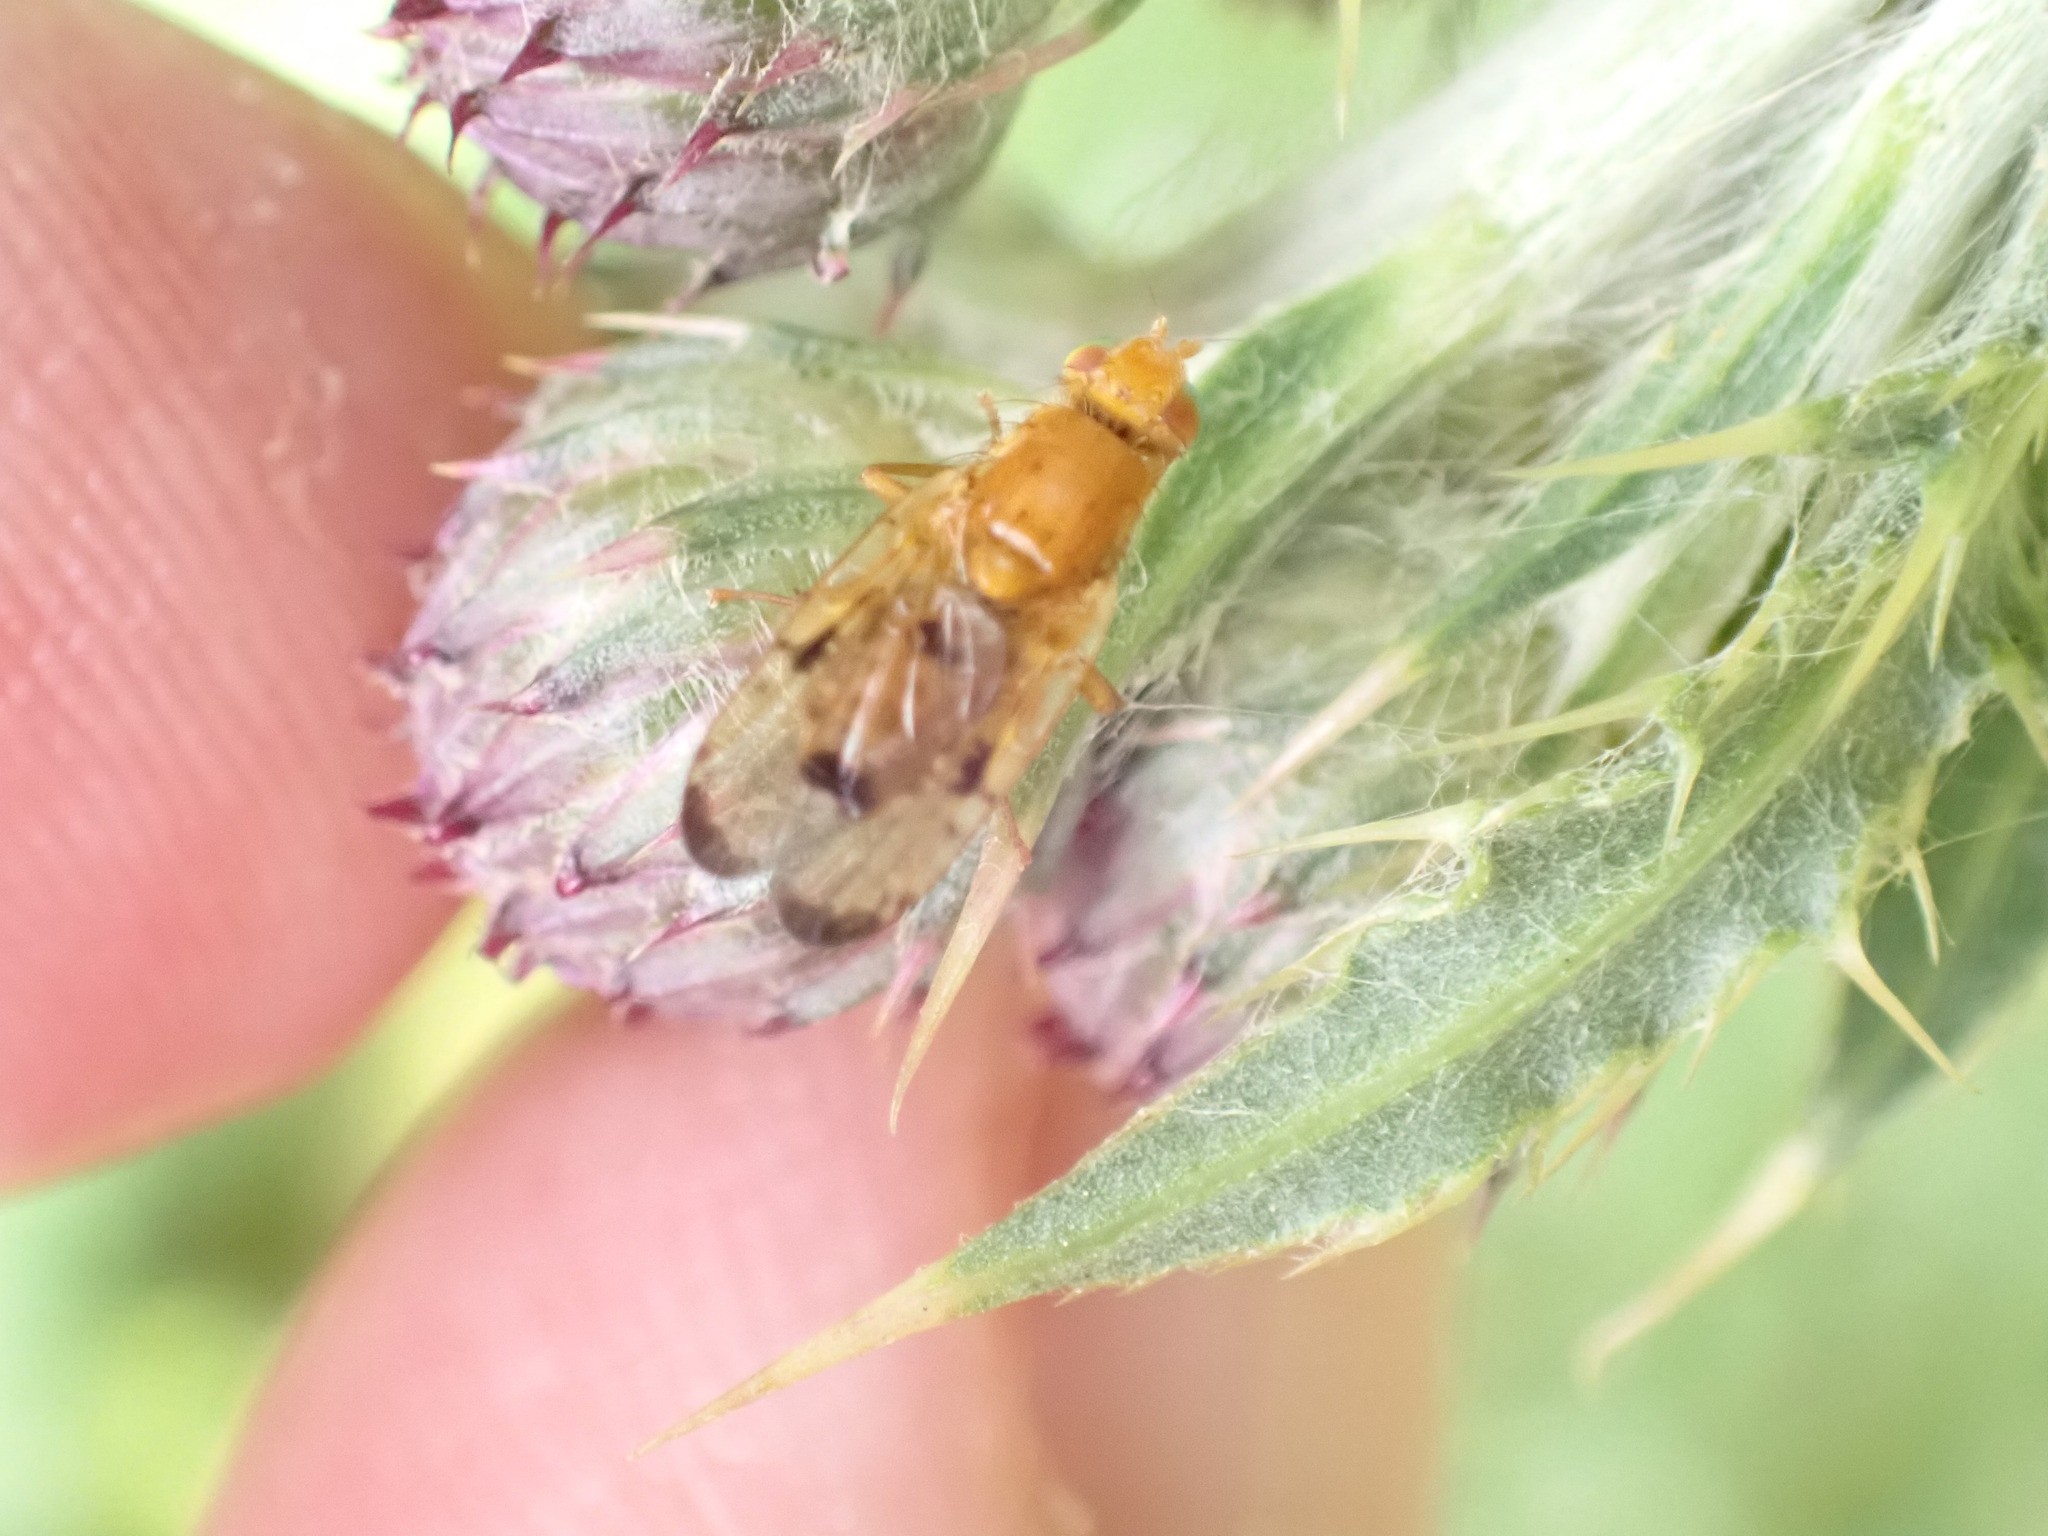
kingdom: Animalia
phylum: Arthropoda
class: Insecta
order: Diptera
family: Tephritidae
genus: Xyphosia
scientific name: Xyphosia miliaria
